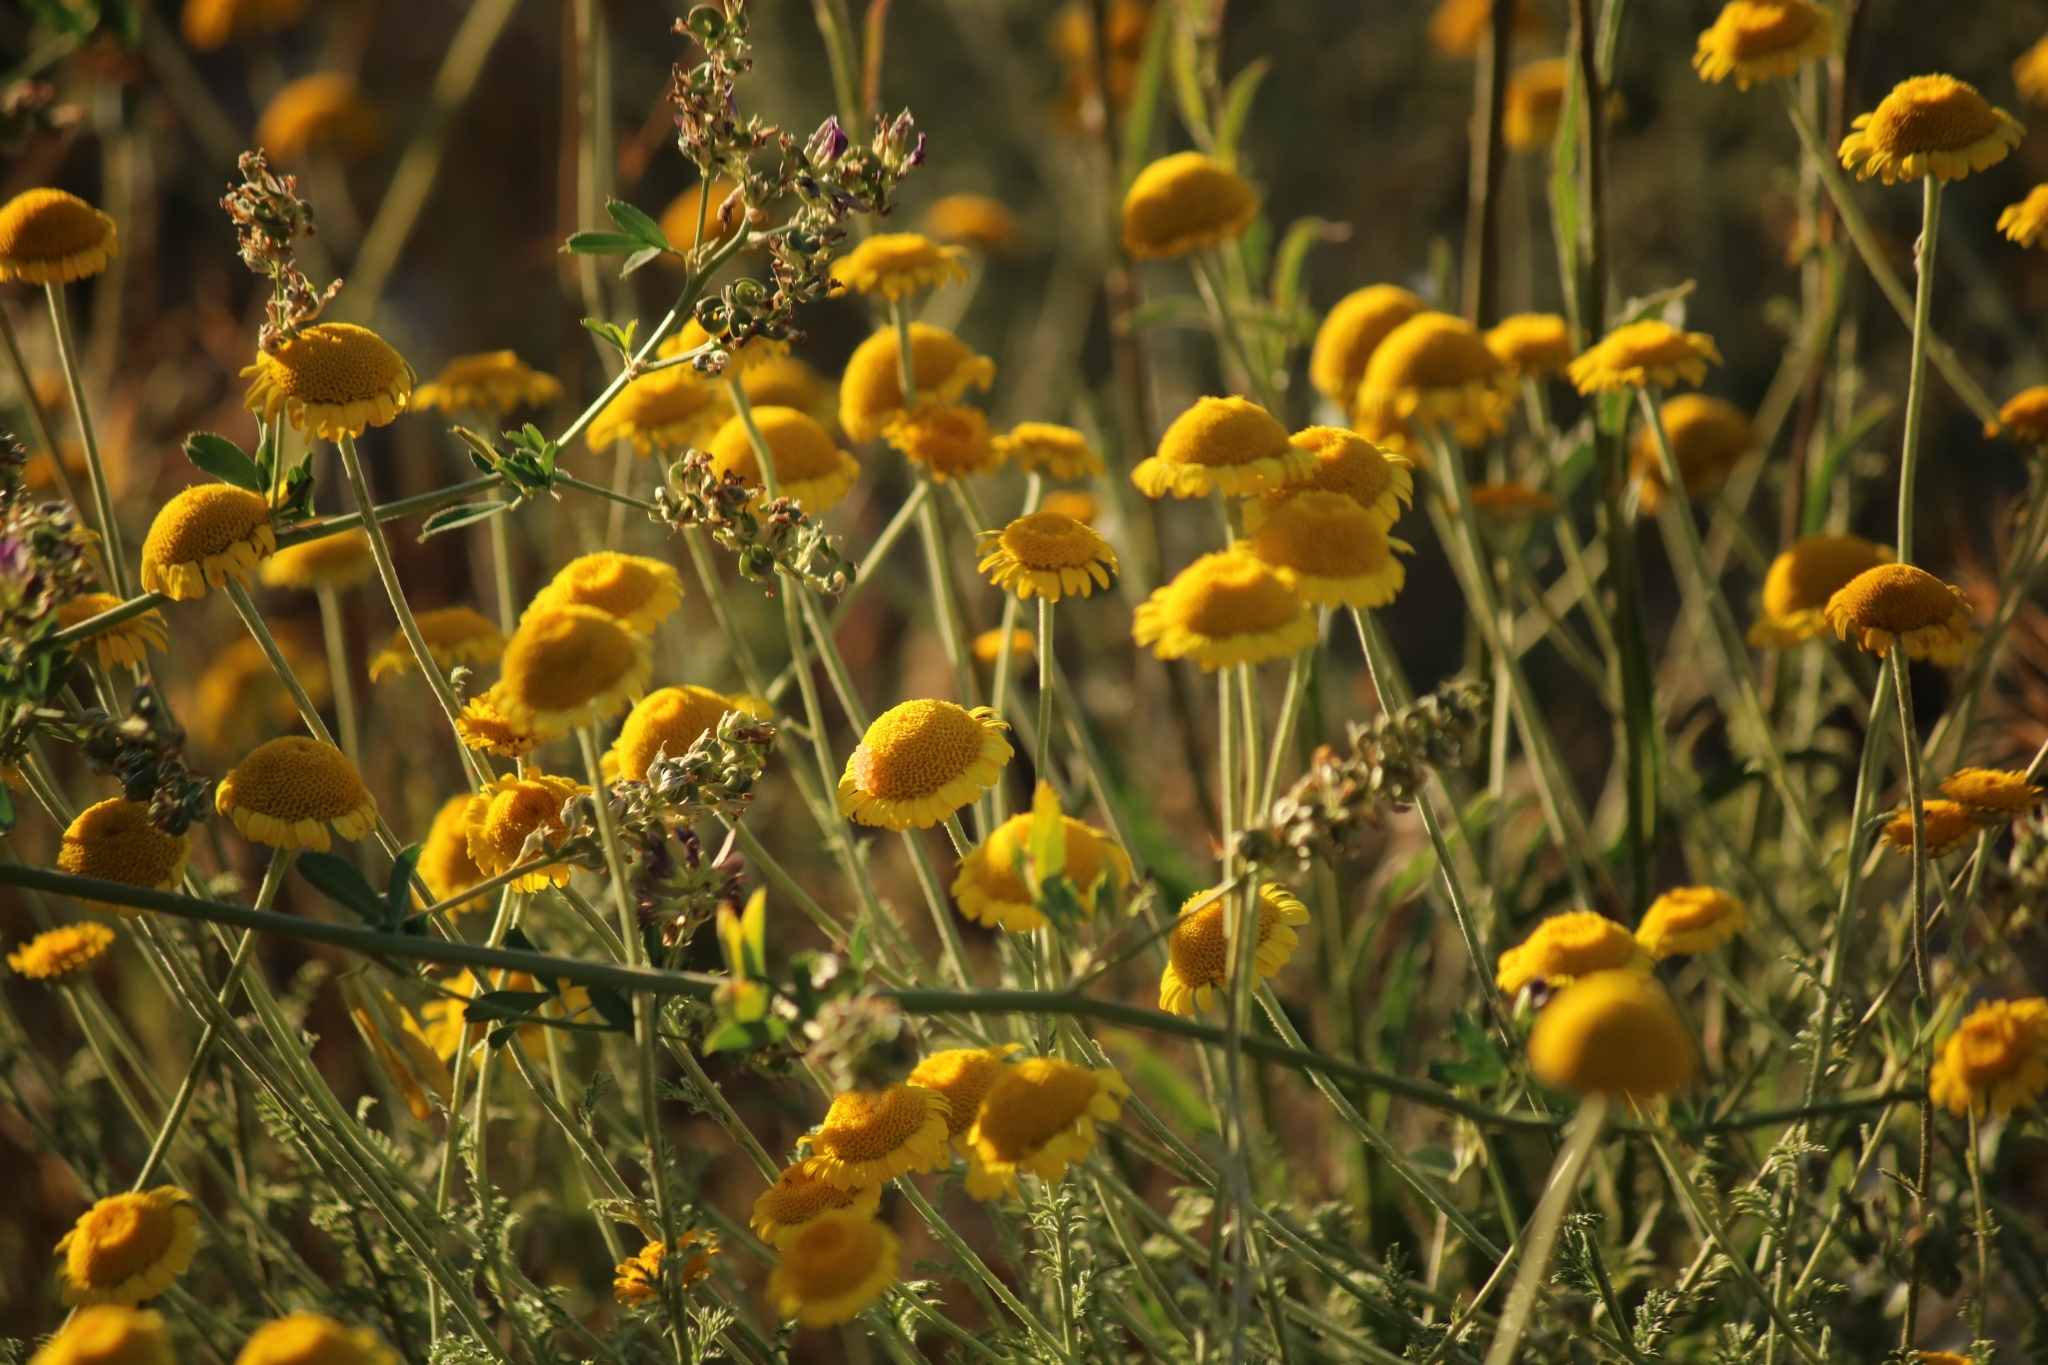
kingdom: Plantae
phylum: Tracheophyta
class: Magnoliopsida
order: Asterales
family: Asteraceae
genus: Cota
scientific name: Cota tinctoria
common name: Golden chamomile
